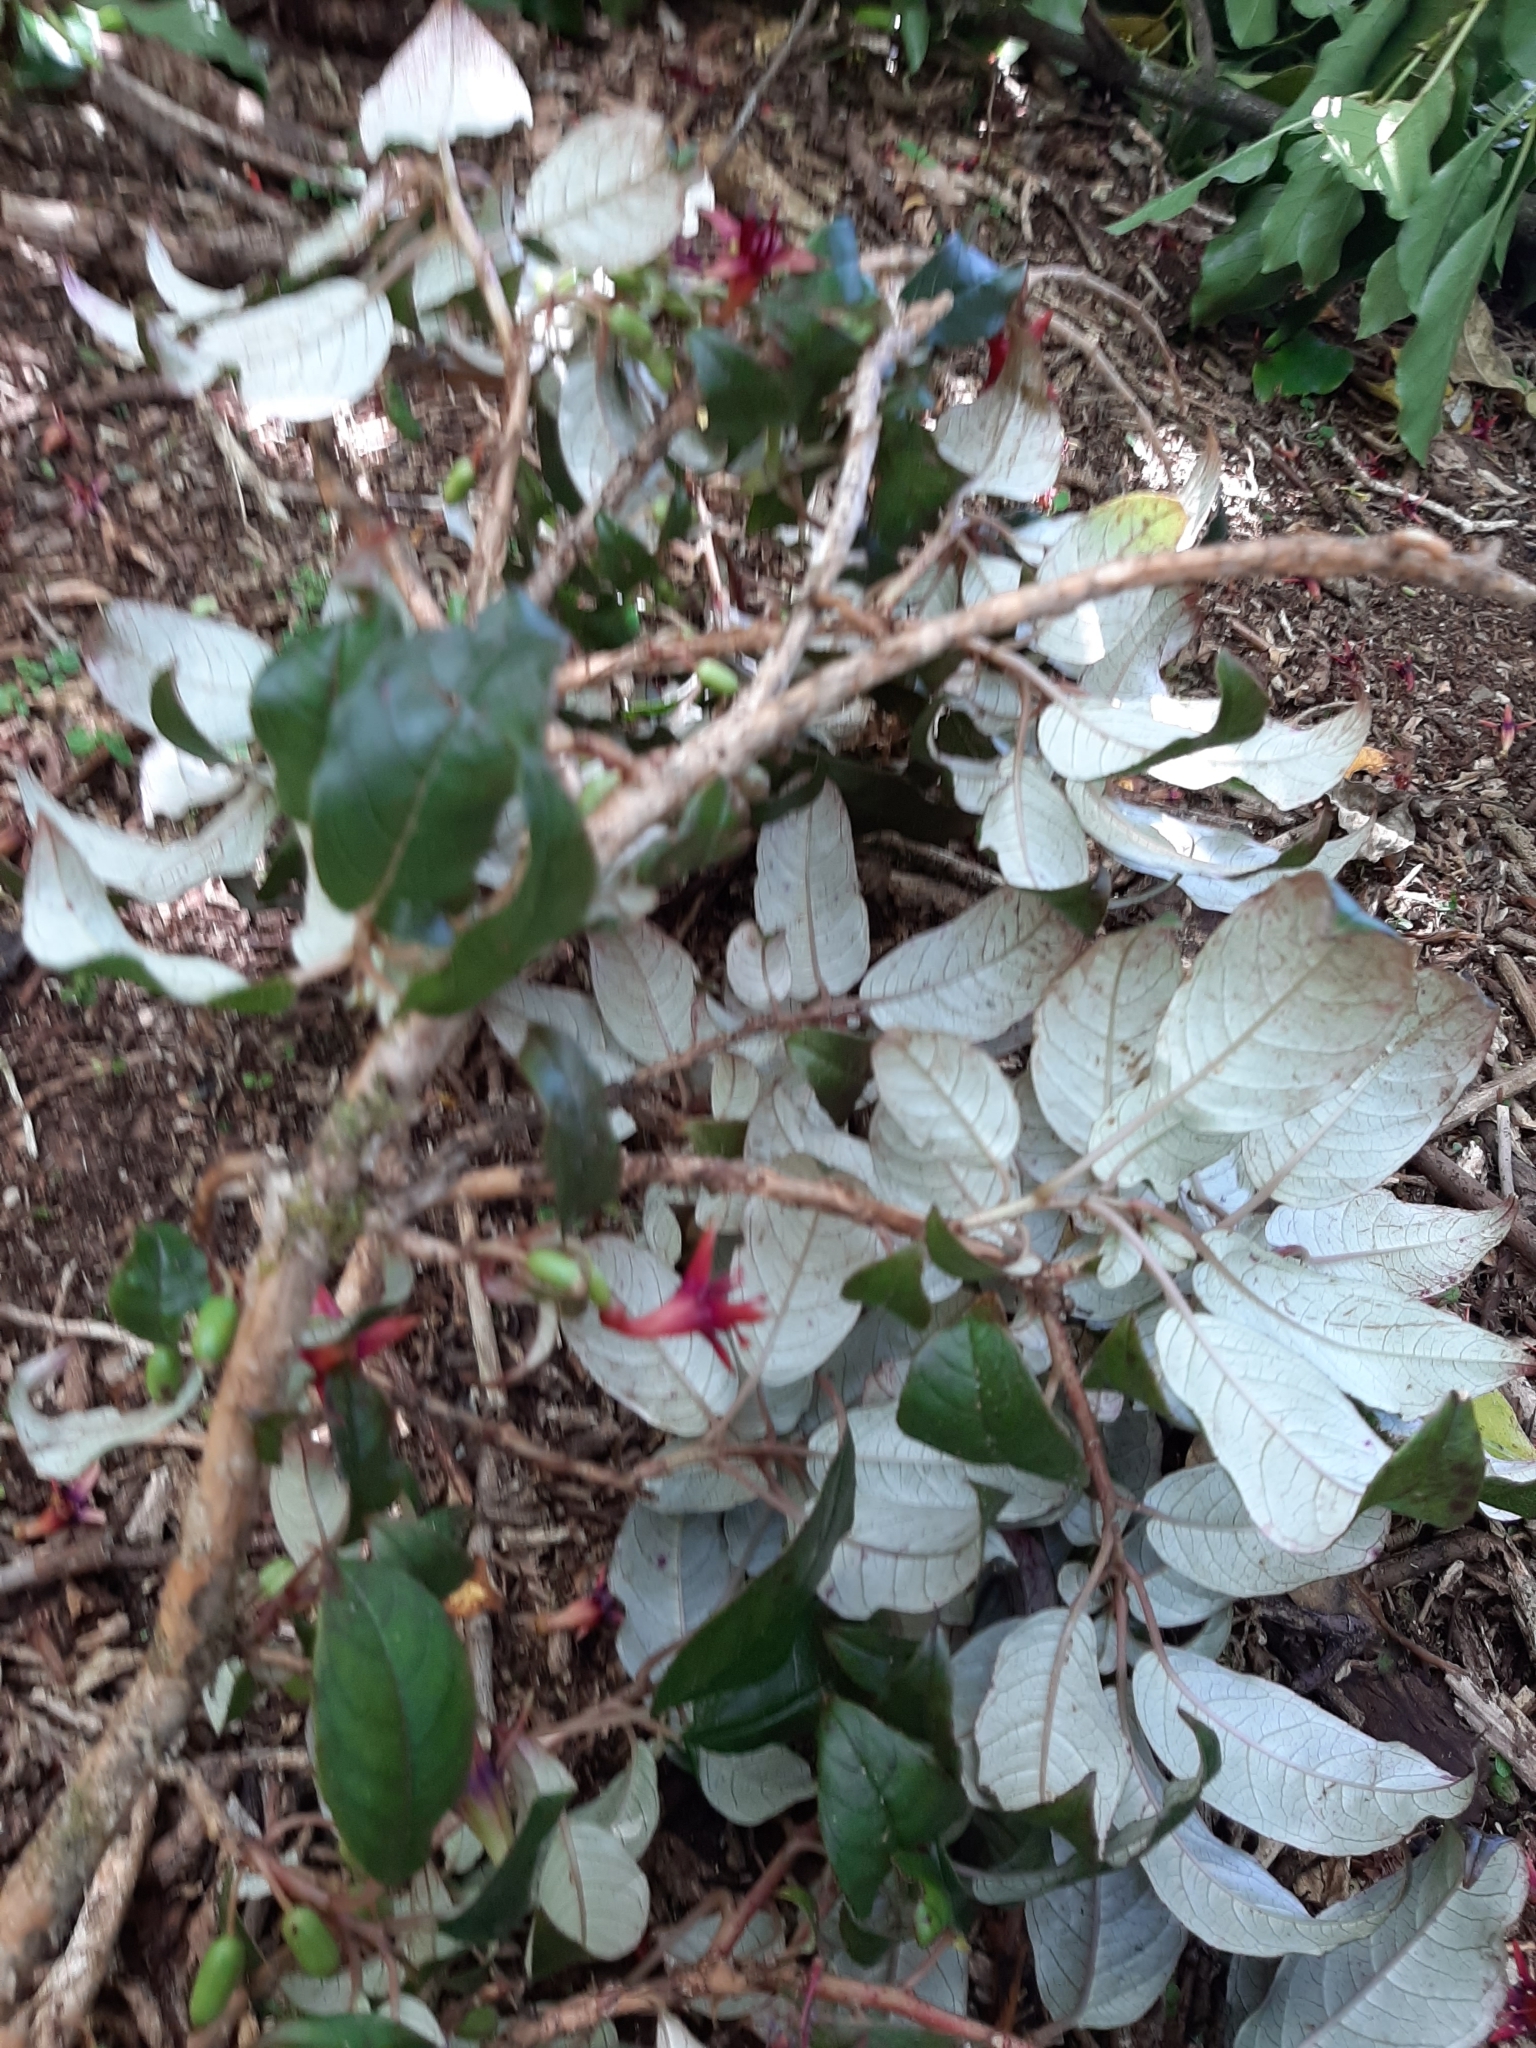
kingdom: Plantae
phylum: Tracheophyta
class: Magnoliopsida
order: Myrtales
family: Onagraceae
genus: Fuchsia
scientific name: Fuchsia excorticata
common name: Tree fuchsia
